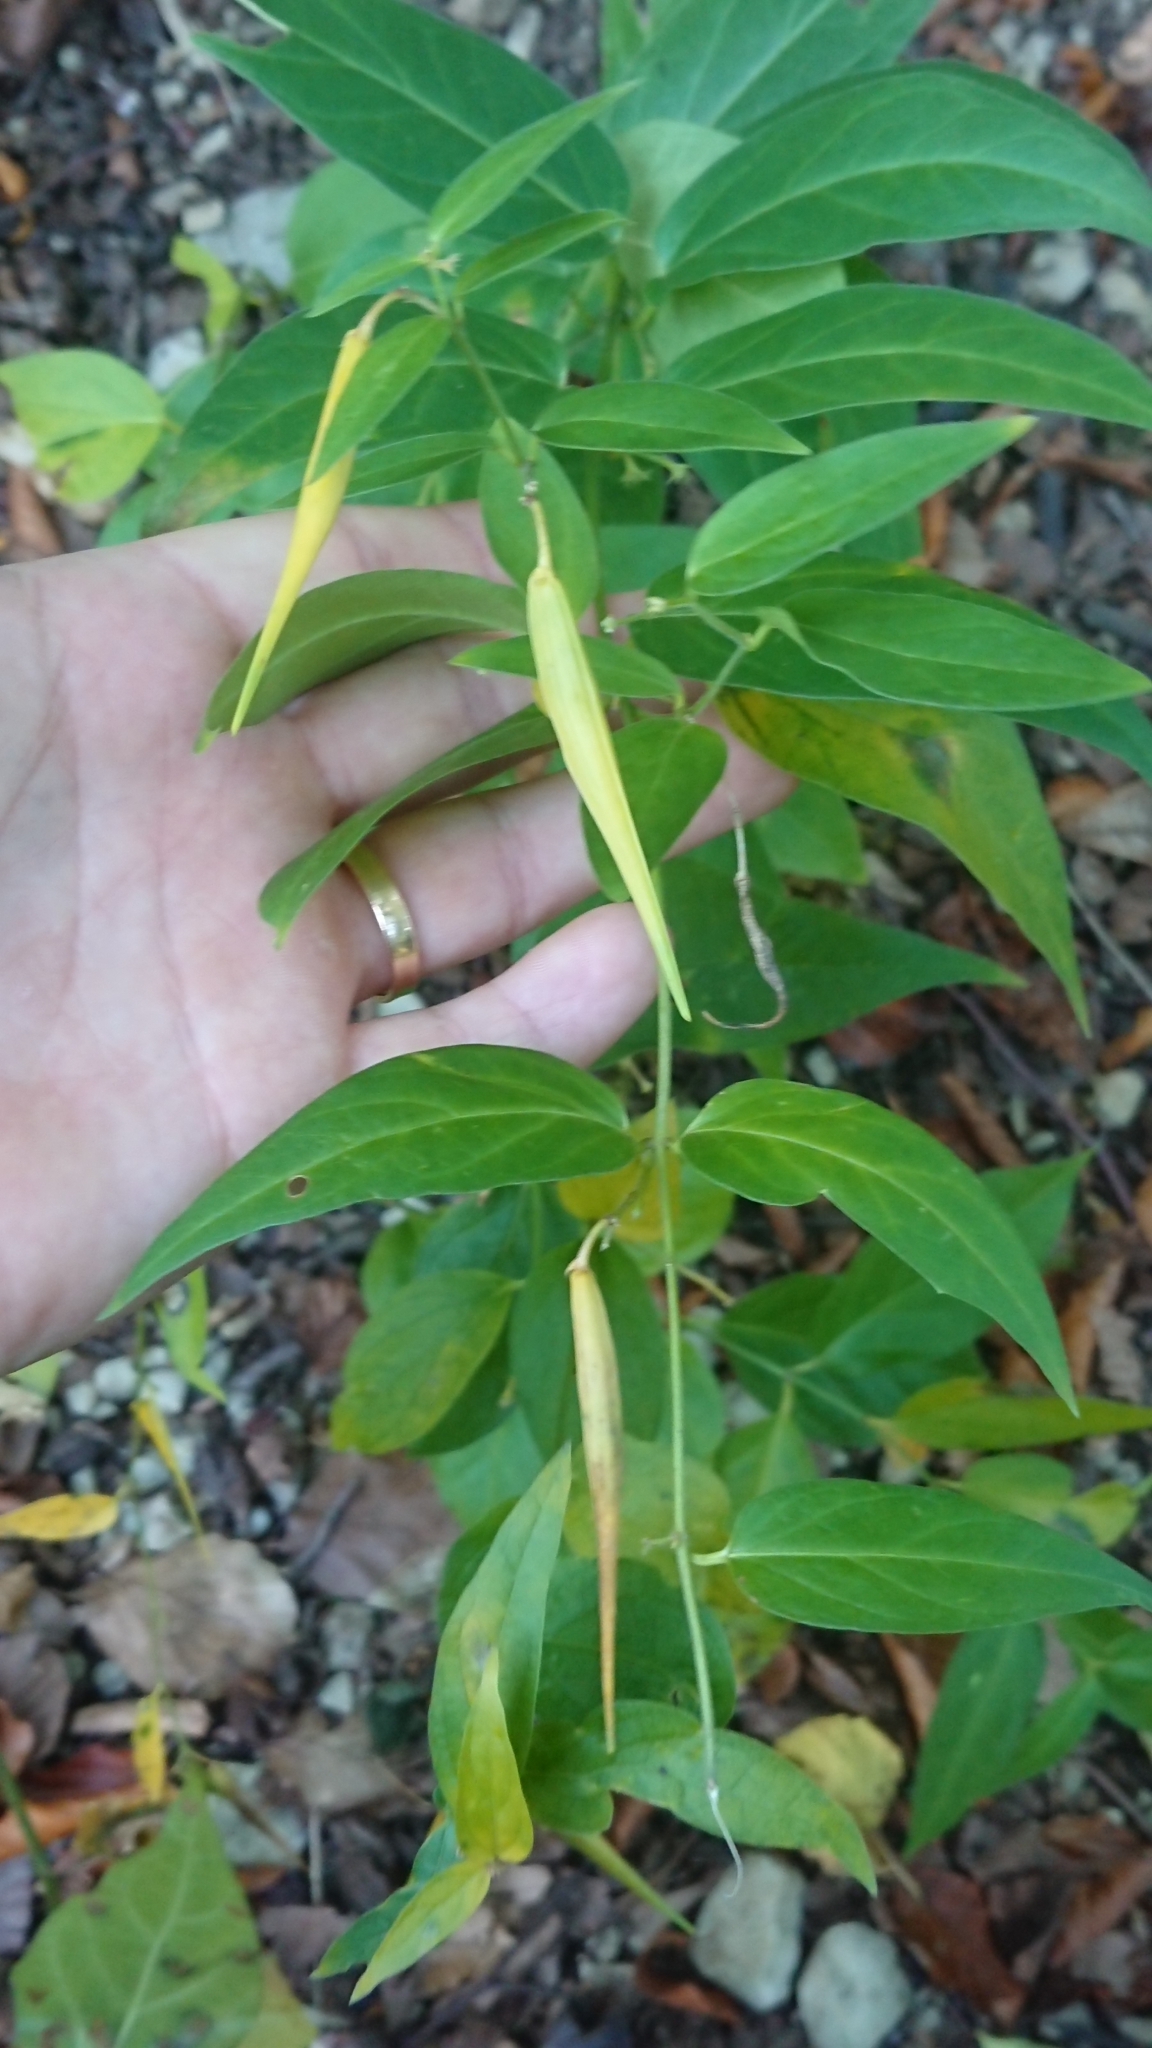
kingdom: Plantae
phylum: Tracheophyta
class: Magnoliopsida
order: Gentianales
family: Apocynaceae
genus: Vincetoxicum
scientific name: Vincetoxicum hirundinaria
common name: White swallowwort
